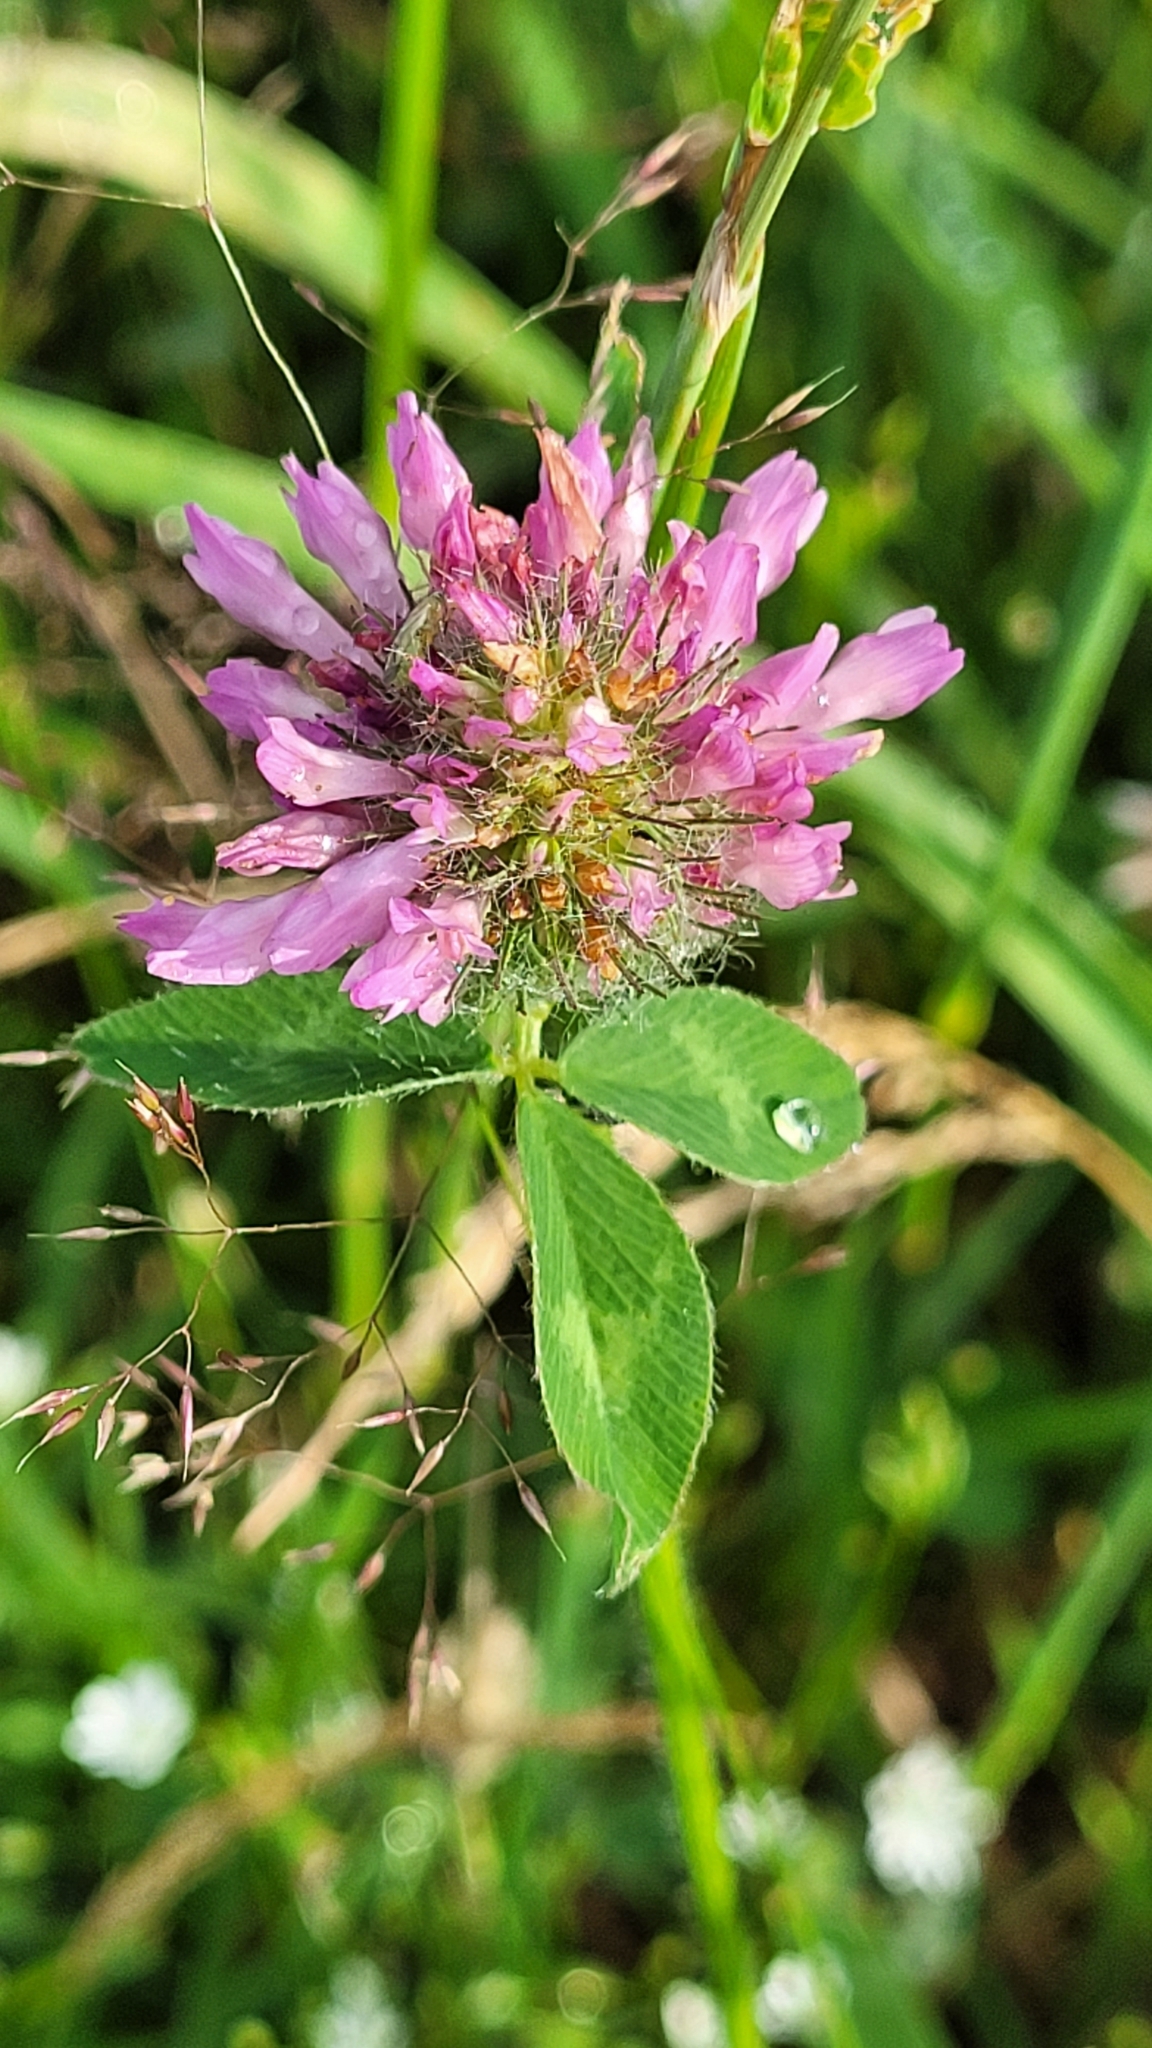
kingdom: Plantae
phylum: Tracheophyta
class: Magnoliopsida
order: Fabales
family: Fabaceae
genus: Trifolium
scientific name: Trifolium pratense
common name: Red clover
